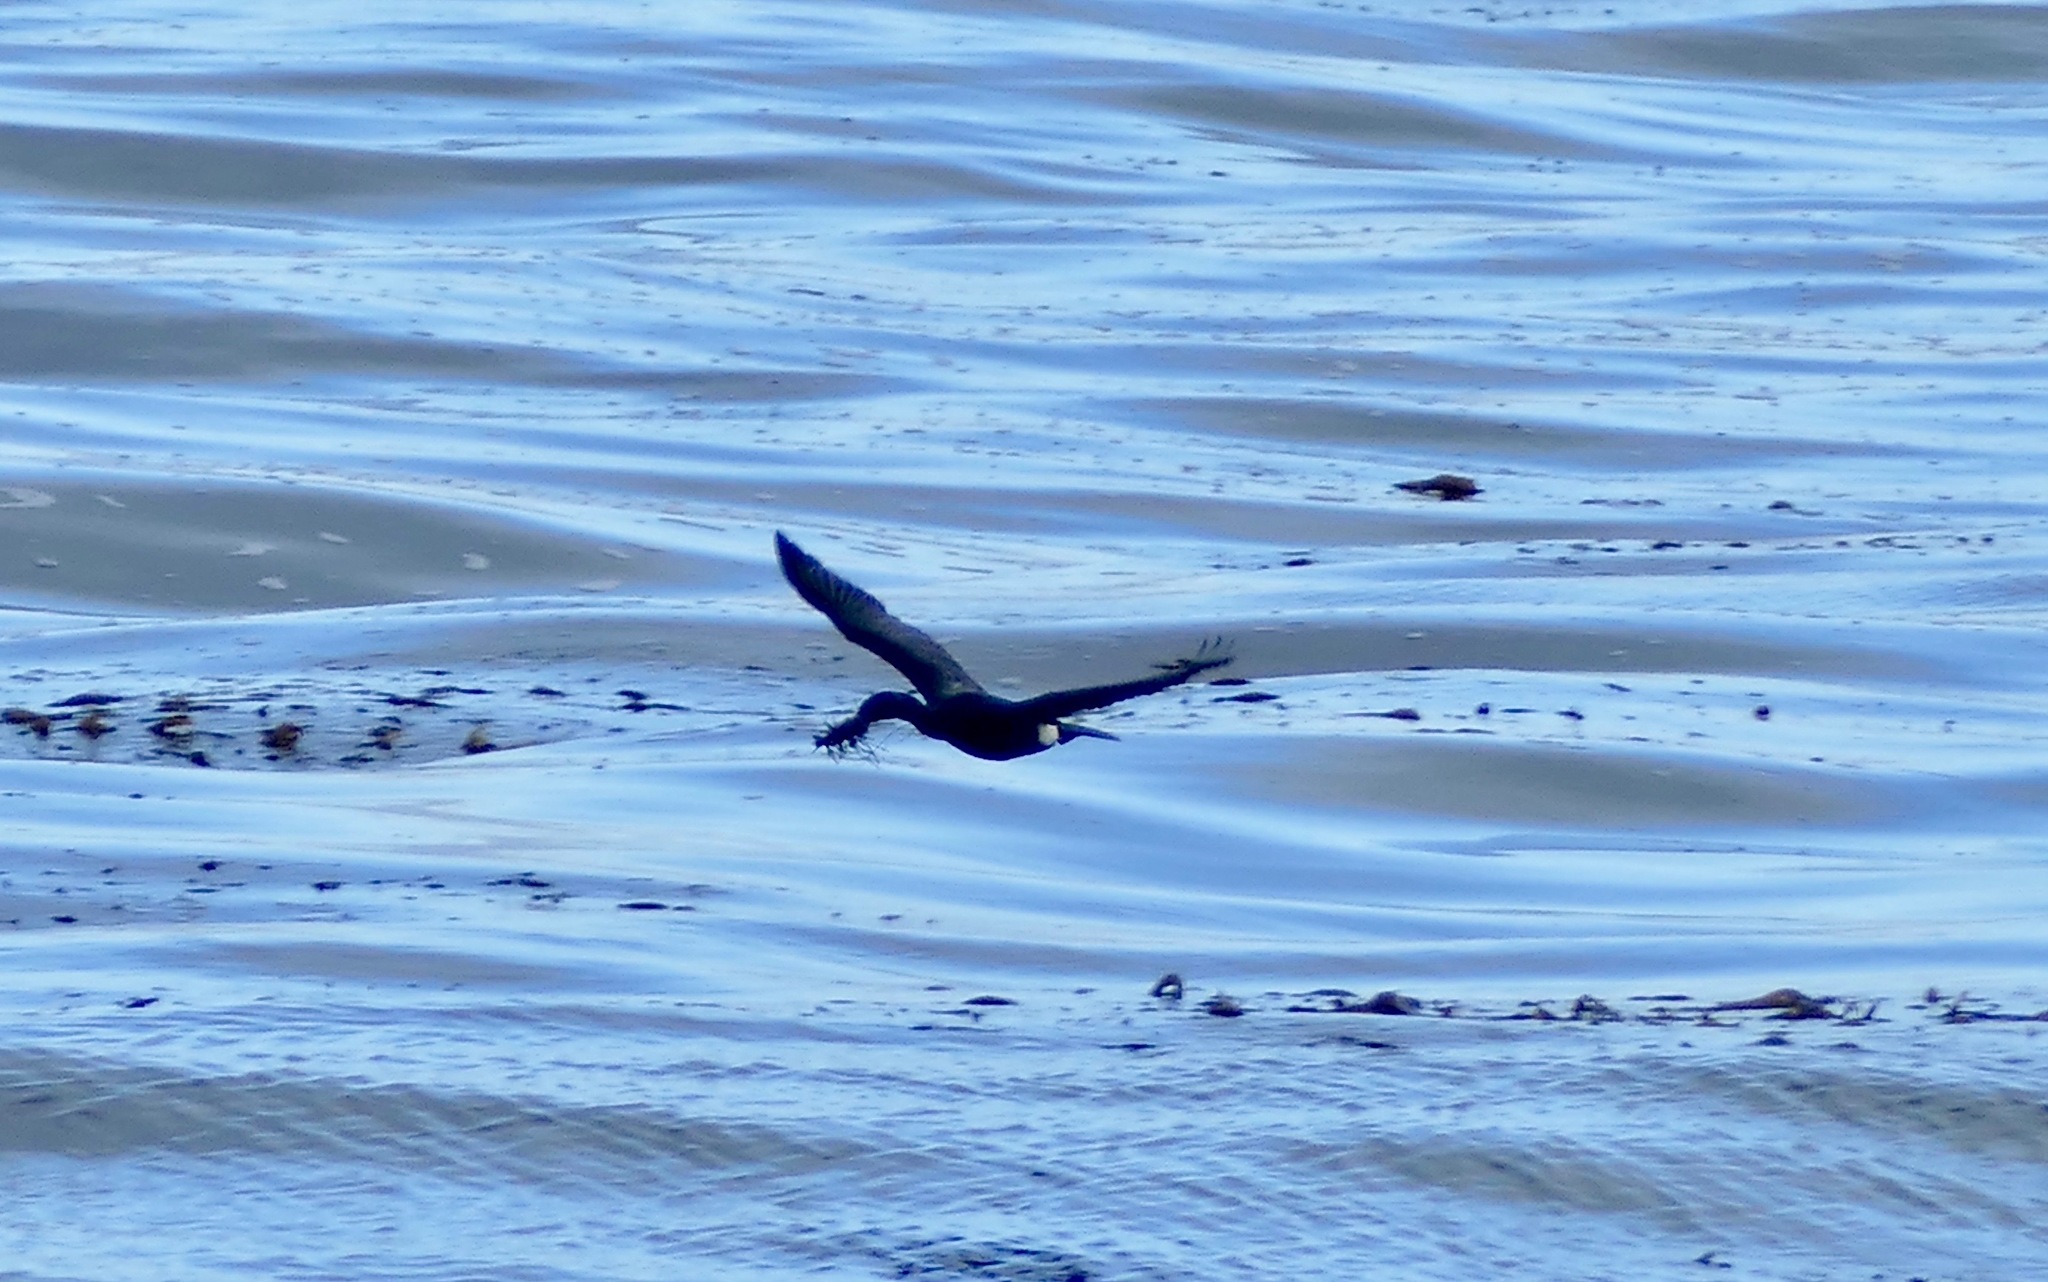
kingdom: Animalia
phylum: Chordata
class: Aves
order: Suliformes
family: Phalacrocoracidae
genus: Phalacrocorax
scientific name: Phalacrocorax pelagicus
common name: Pelagic cormorant
